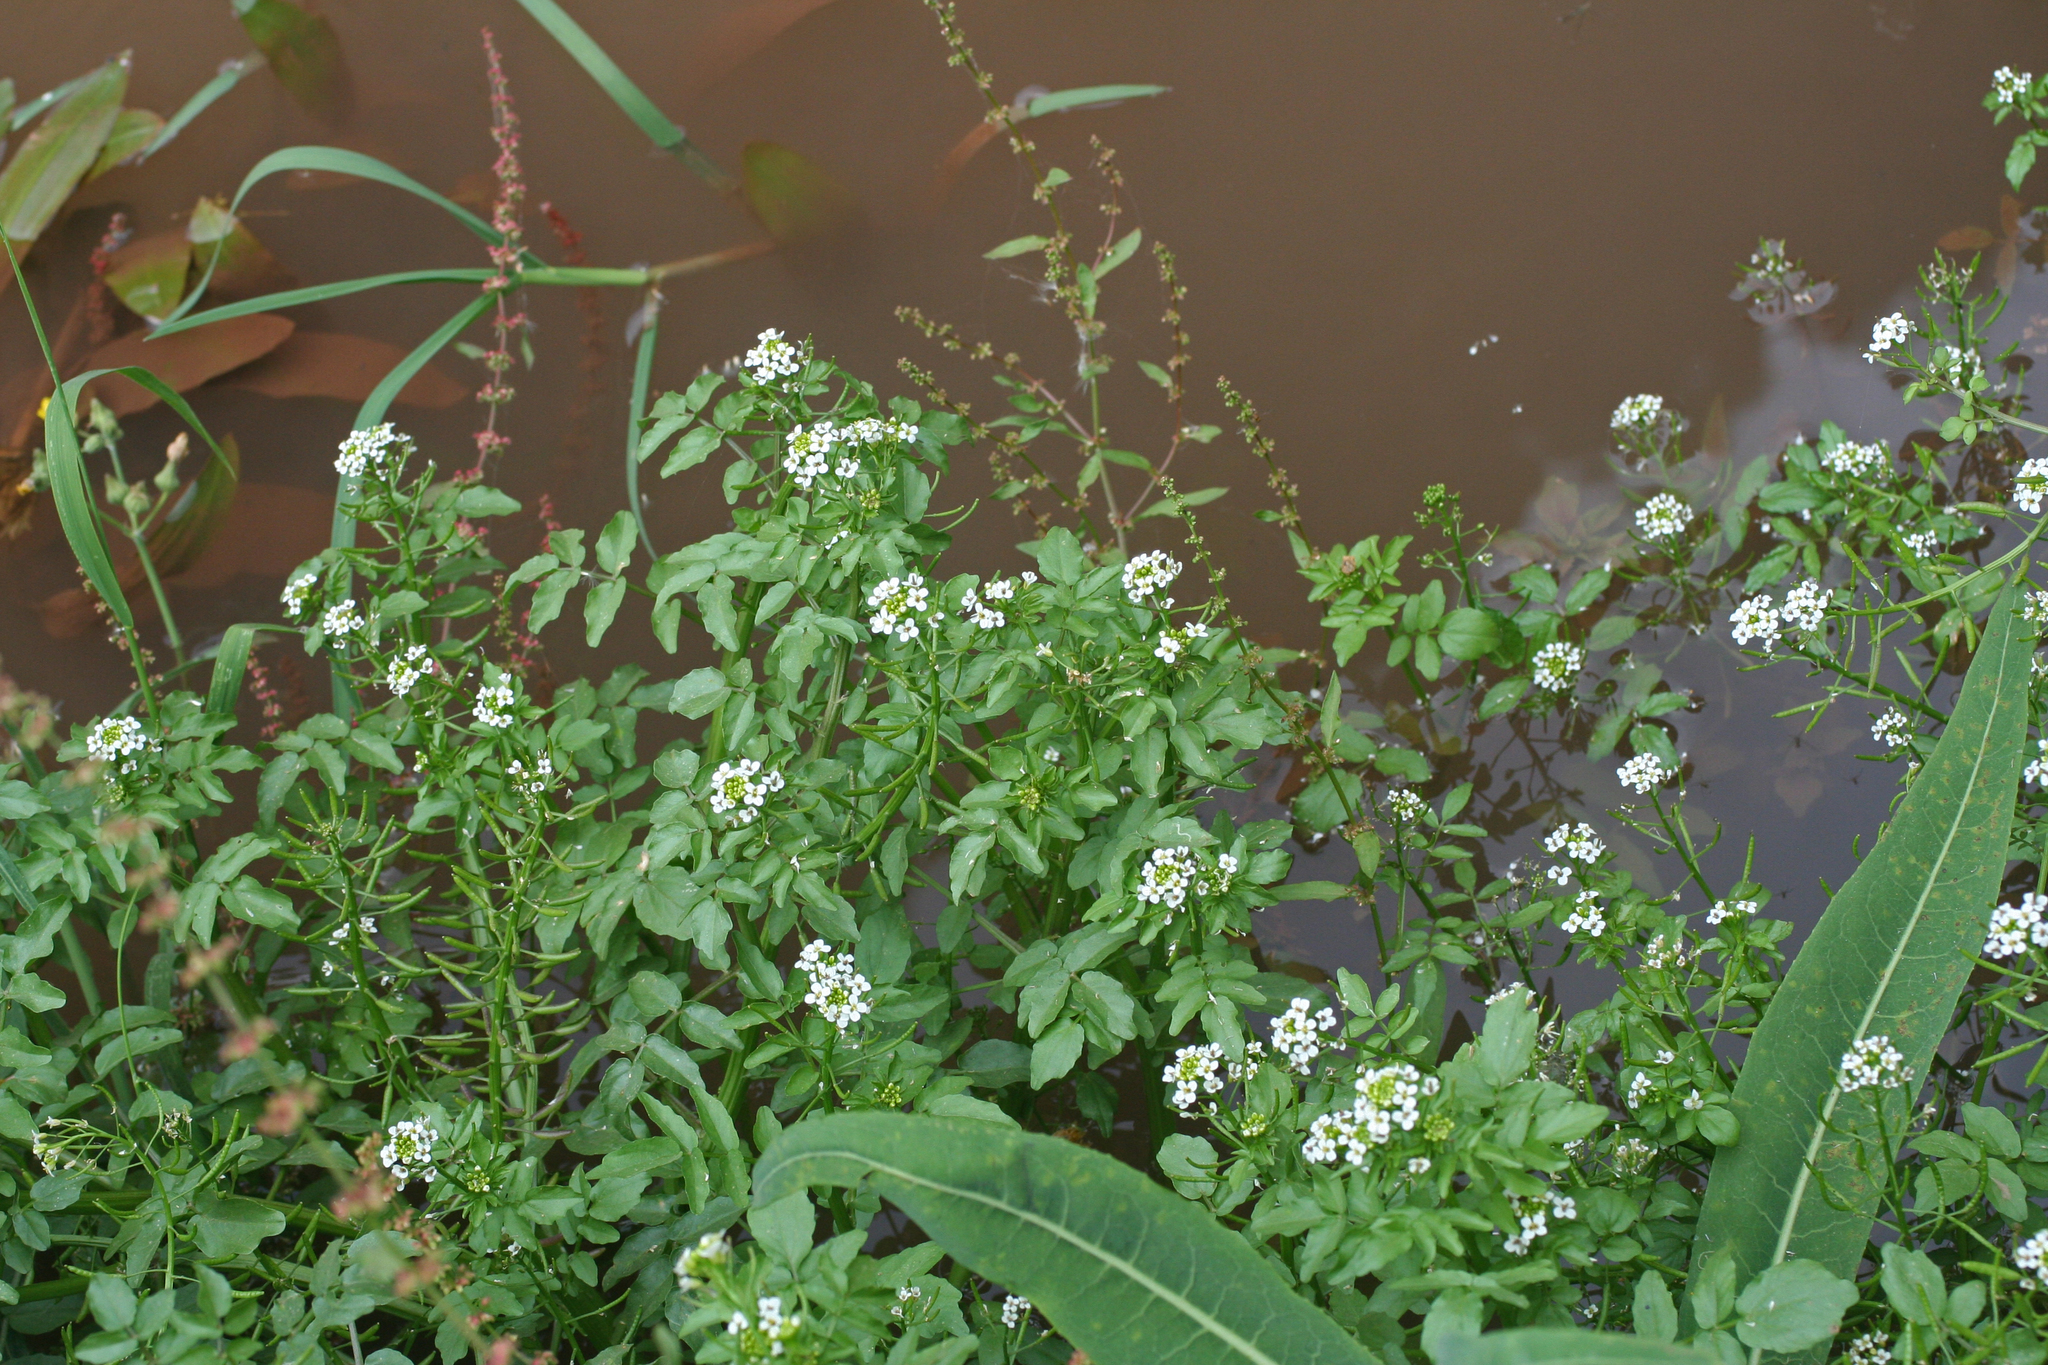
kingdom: Plantae
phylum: Tracheophyta
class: Magnoliopsida
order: Brassicales
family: Brassicaceae
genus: Nasturtium
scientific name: Nasturtium officinale
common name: Watercress
